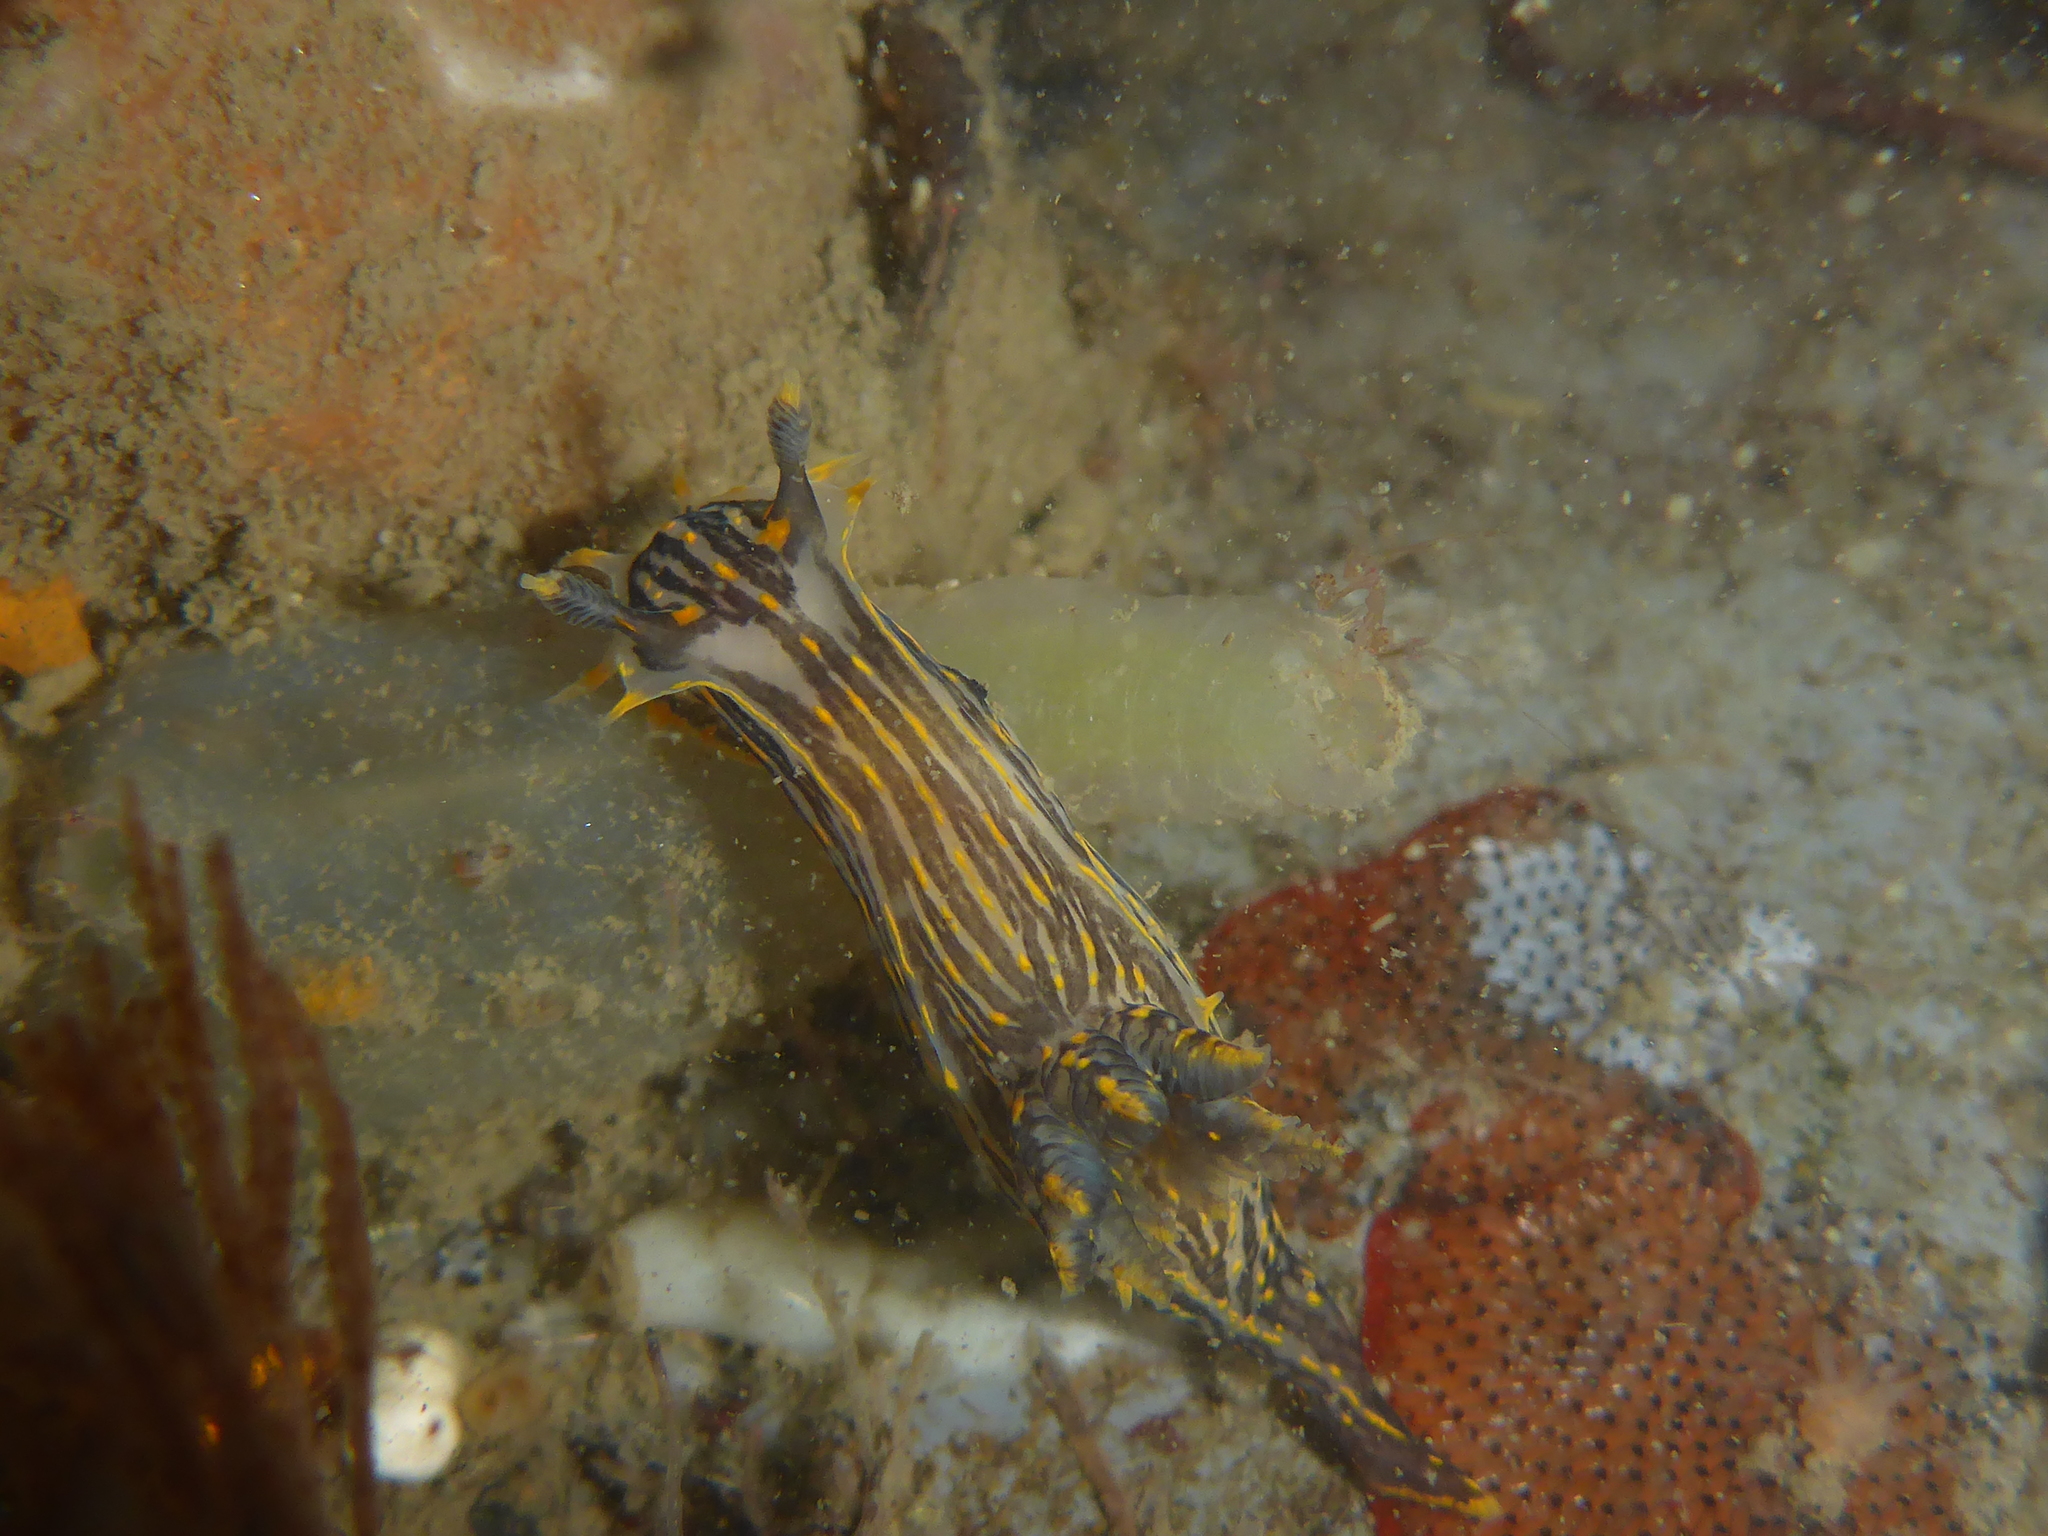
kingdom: Animalia
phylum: Mollusca
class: Gastropoda
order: Nudibranchia
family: Polyceridae
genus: Polycera
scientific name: Polycera atra
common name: Orange-spike polycera
